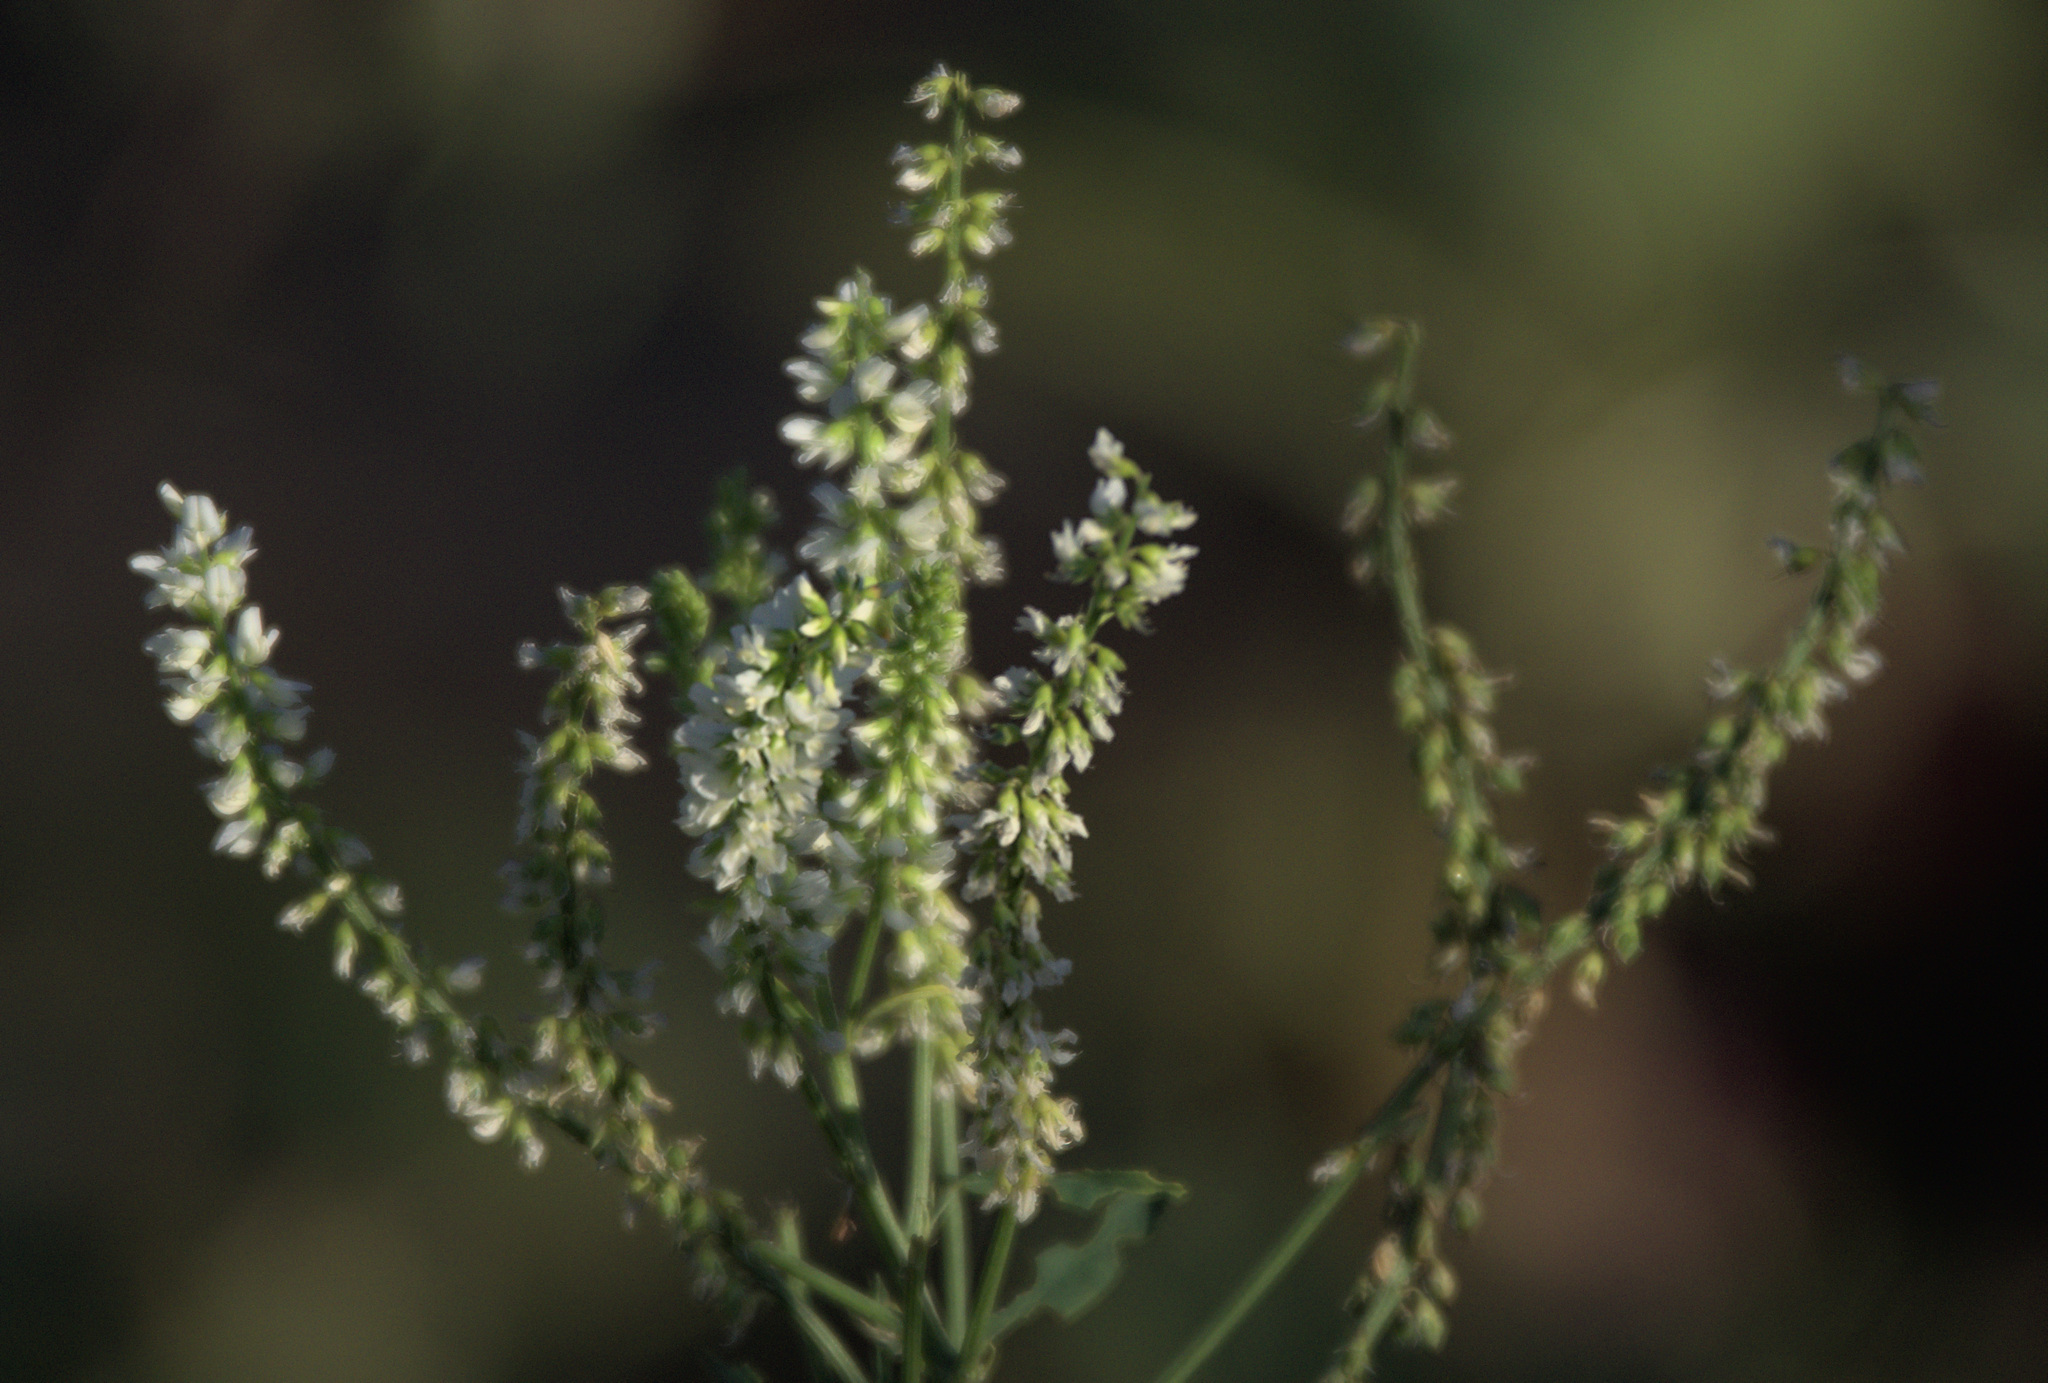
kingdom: Plantae
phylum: Tracheophyta
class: Magnoliopsida
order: Fabales
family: Fabaceae
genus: Melilotus
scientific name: Melilotus albus
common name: White melilot
